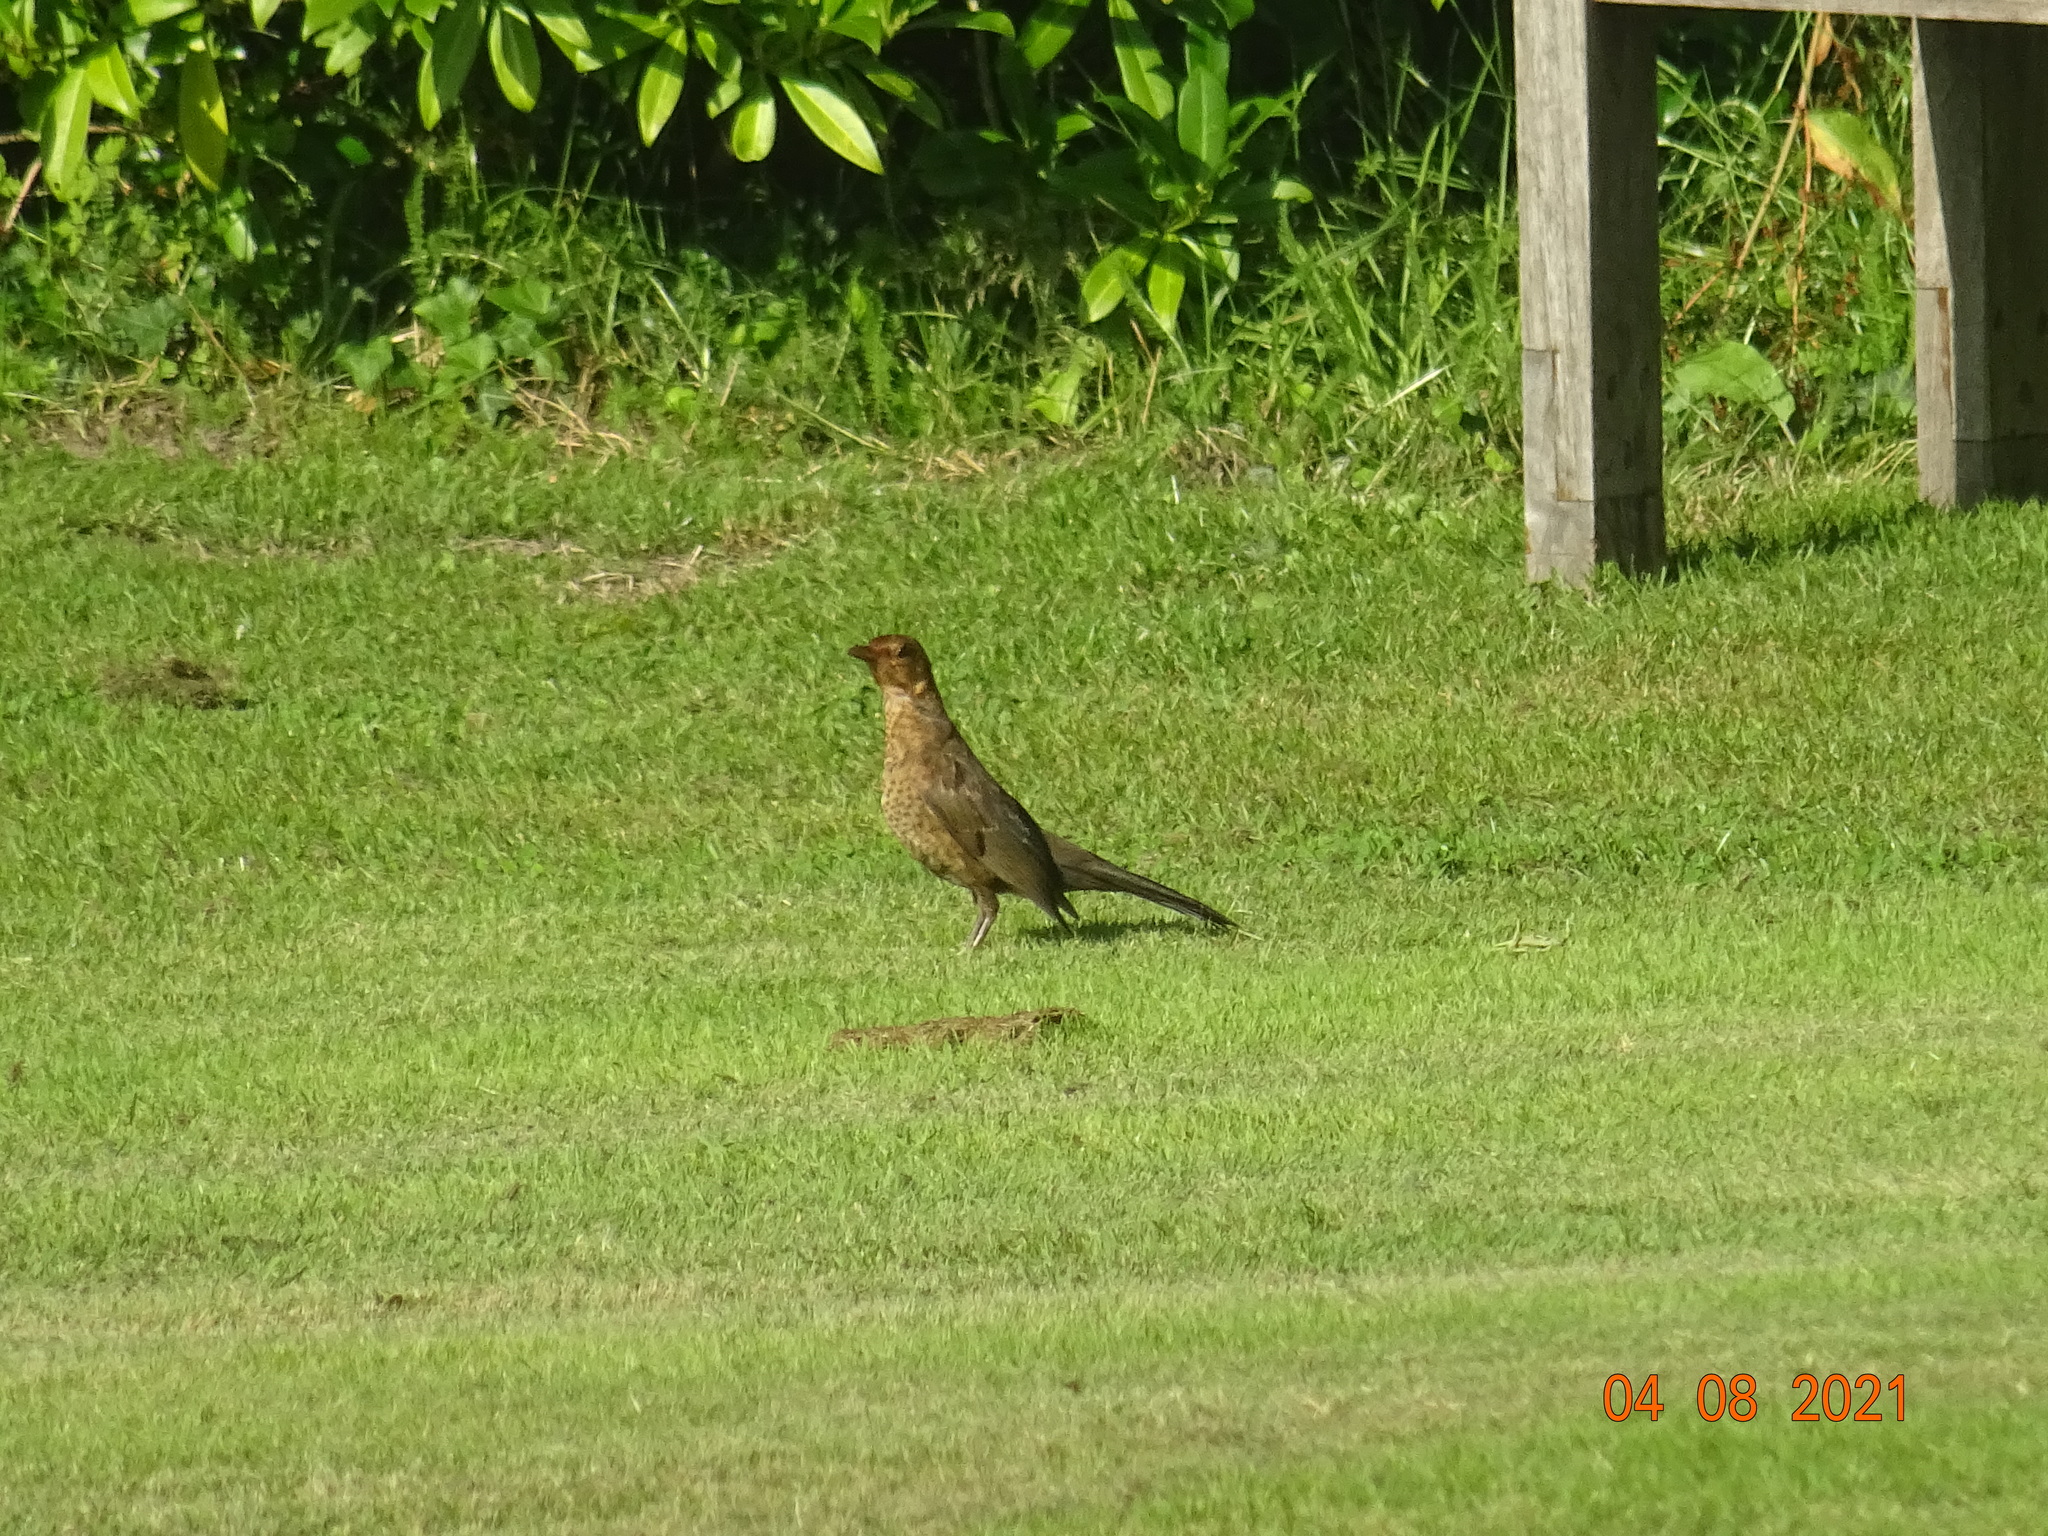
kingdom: Animalia
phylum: Chordata
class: Aves
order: Passeriformes
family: Turdidae
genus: Turdus
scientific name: Turdus merula
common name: Common blackbird
